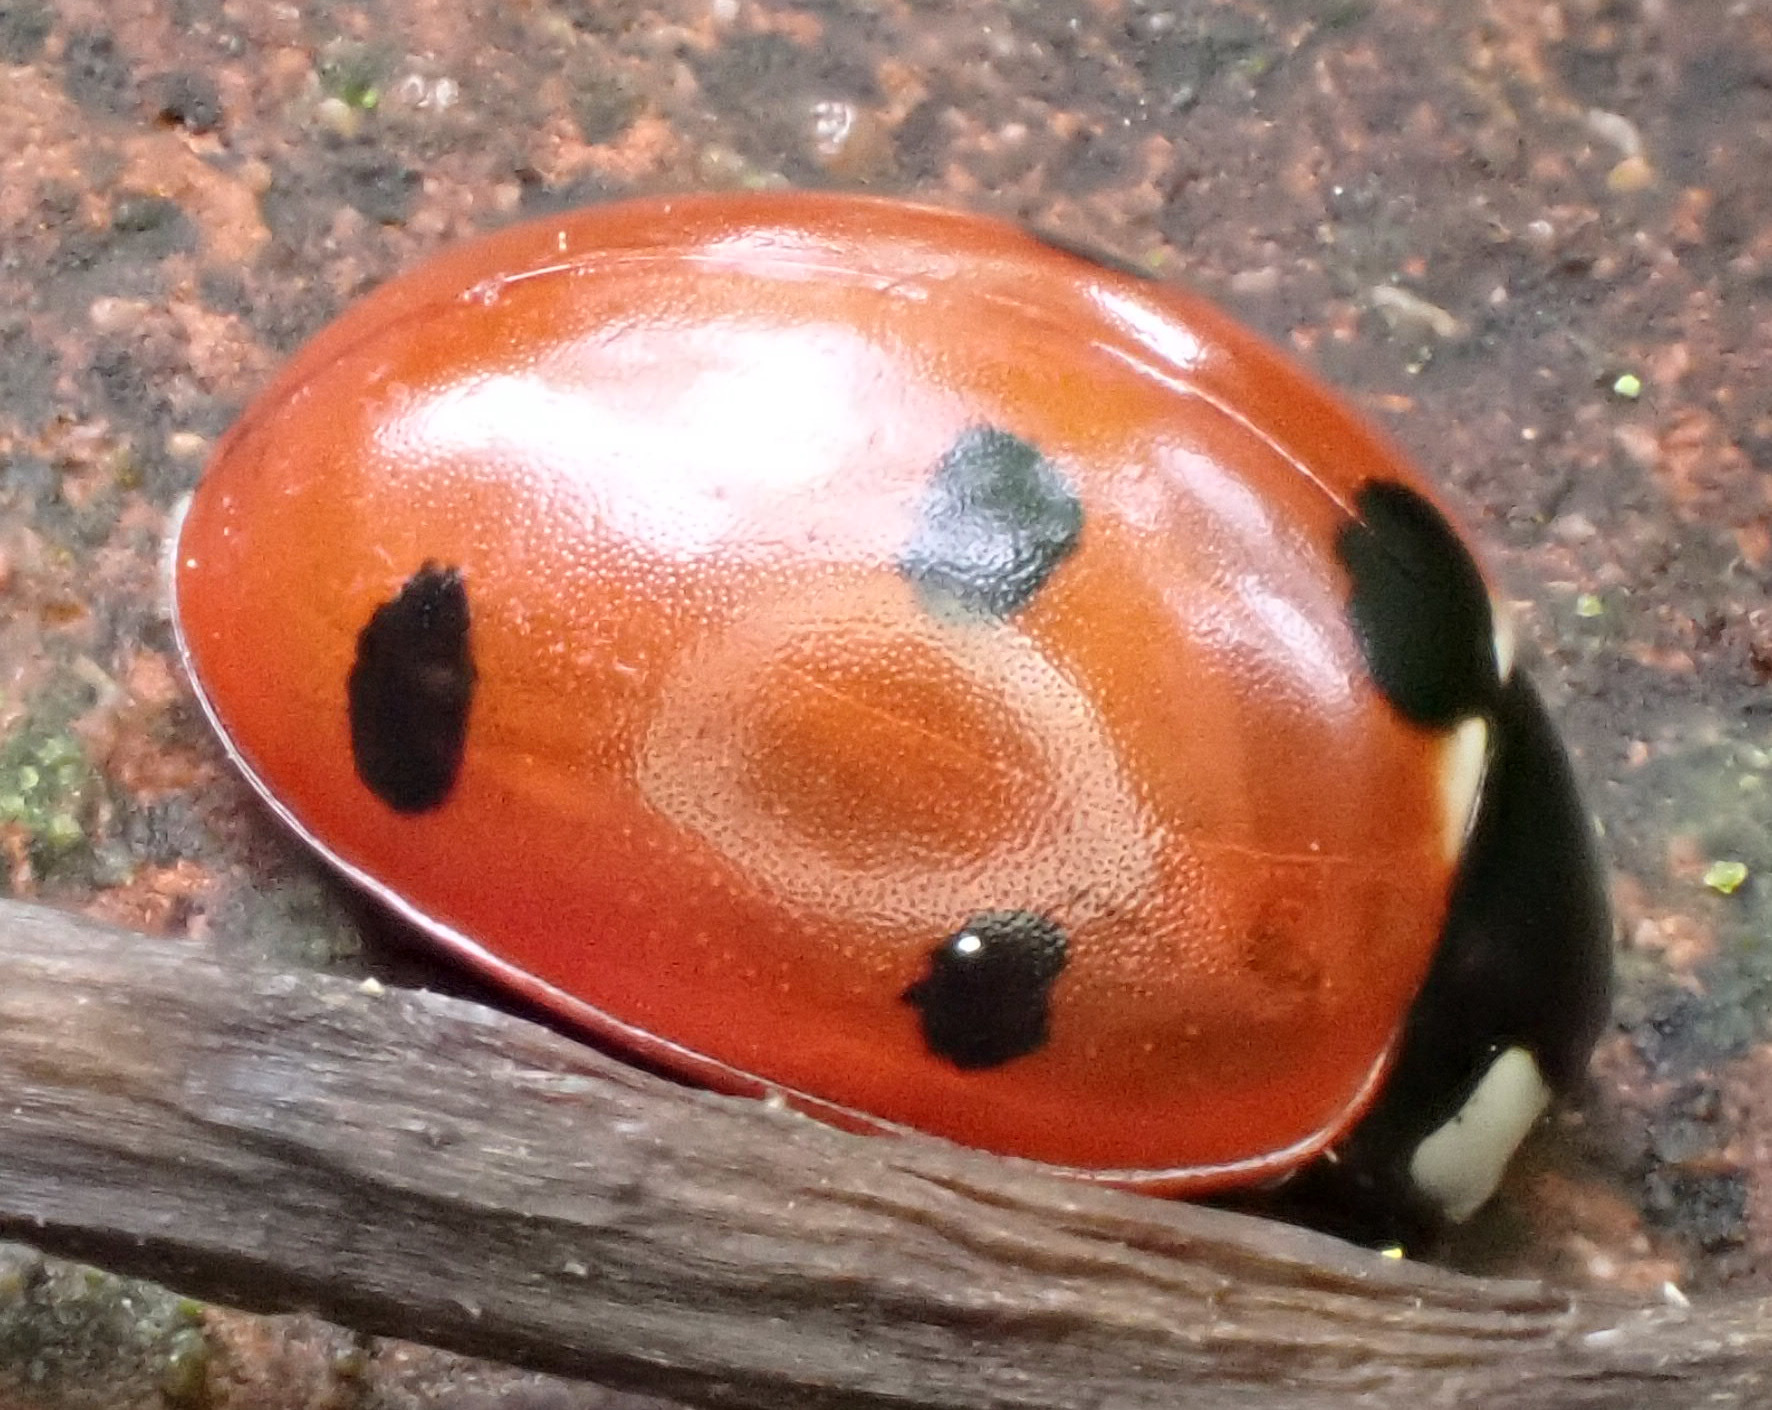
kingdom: Animalia
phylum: Arthropoda
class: Insecta
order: Coleoptera
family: Coccinellidae
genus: Coccinella
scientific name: Coccinella septempunctata
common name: Sevenspotted lady beetle
